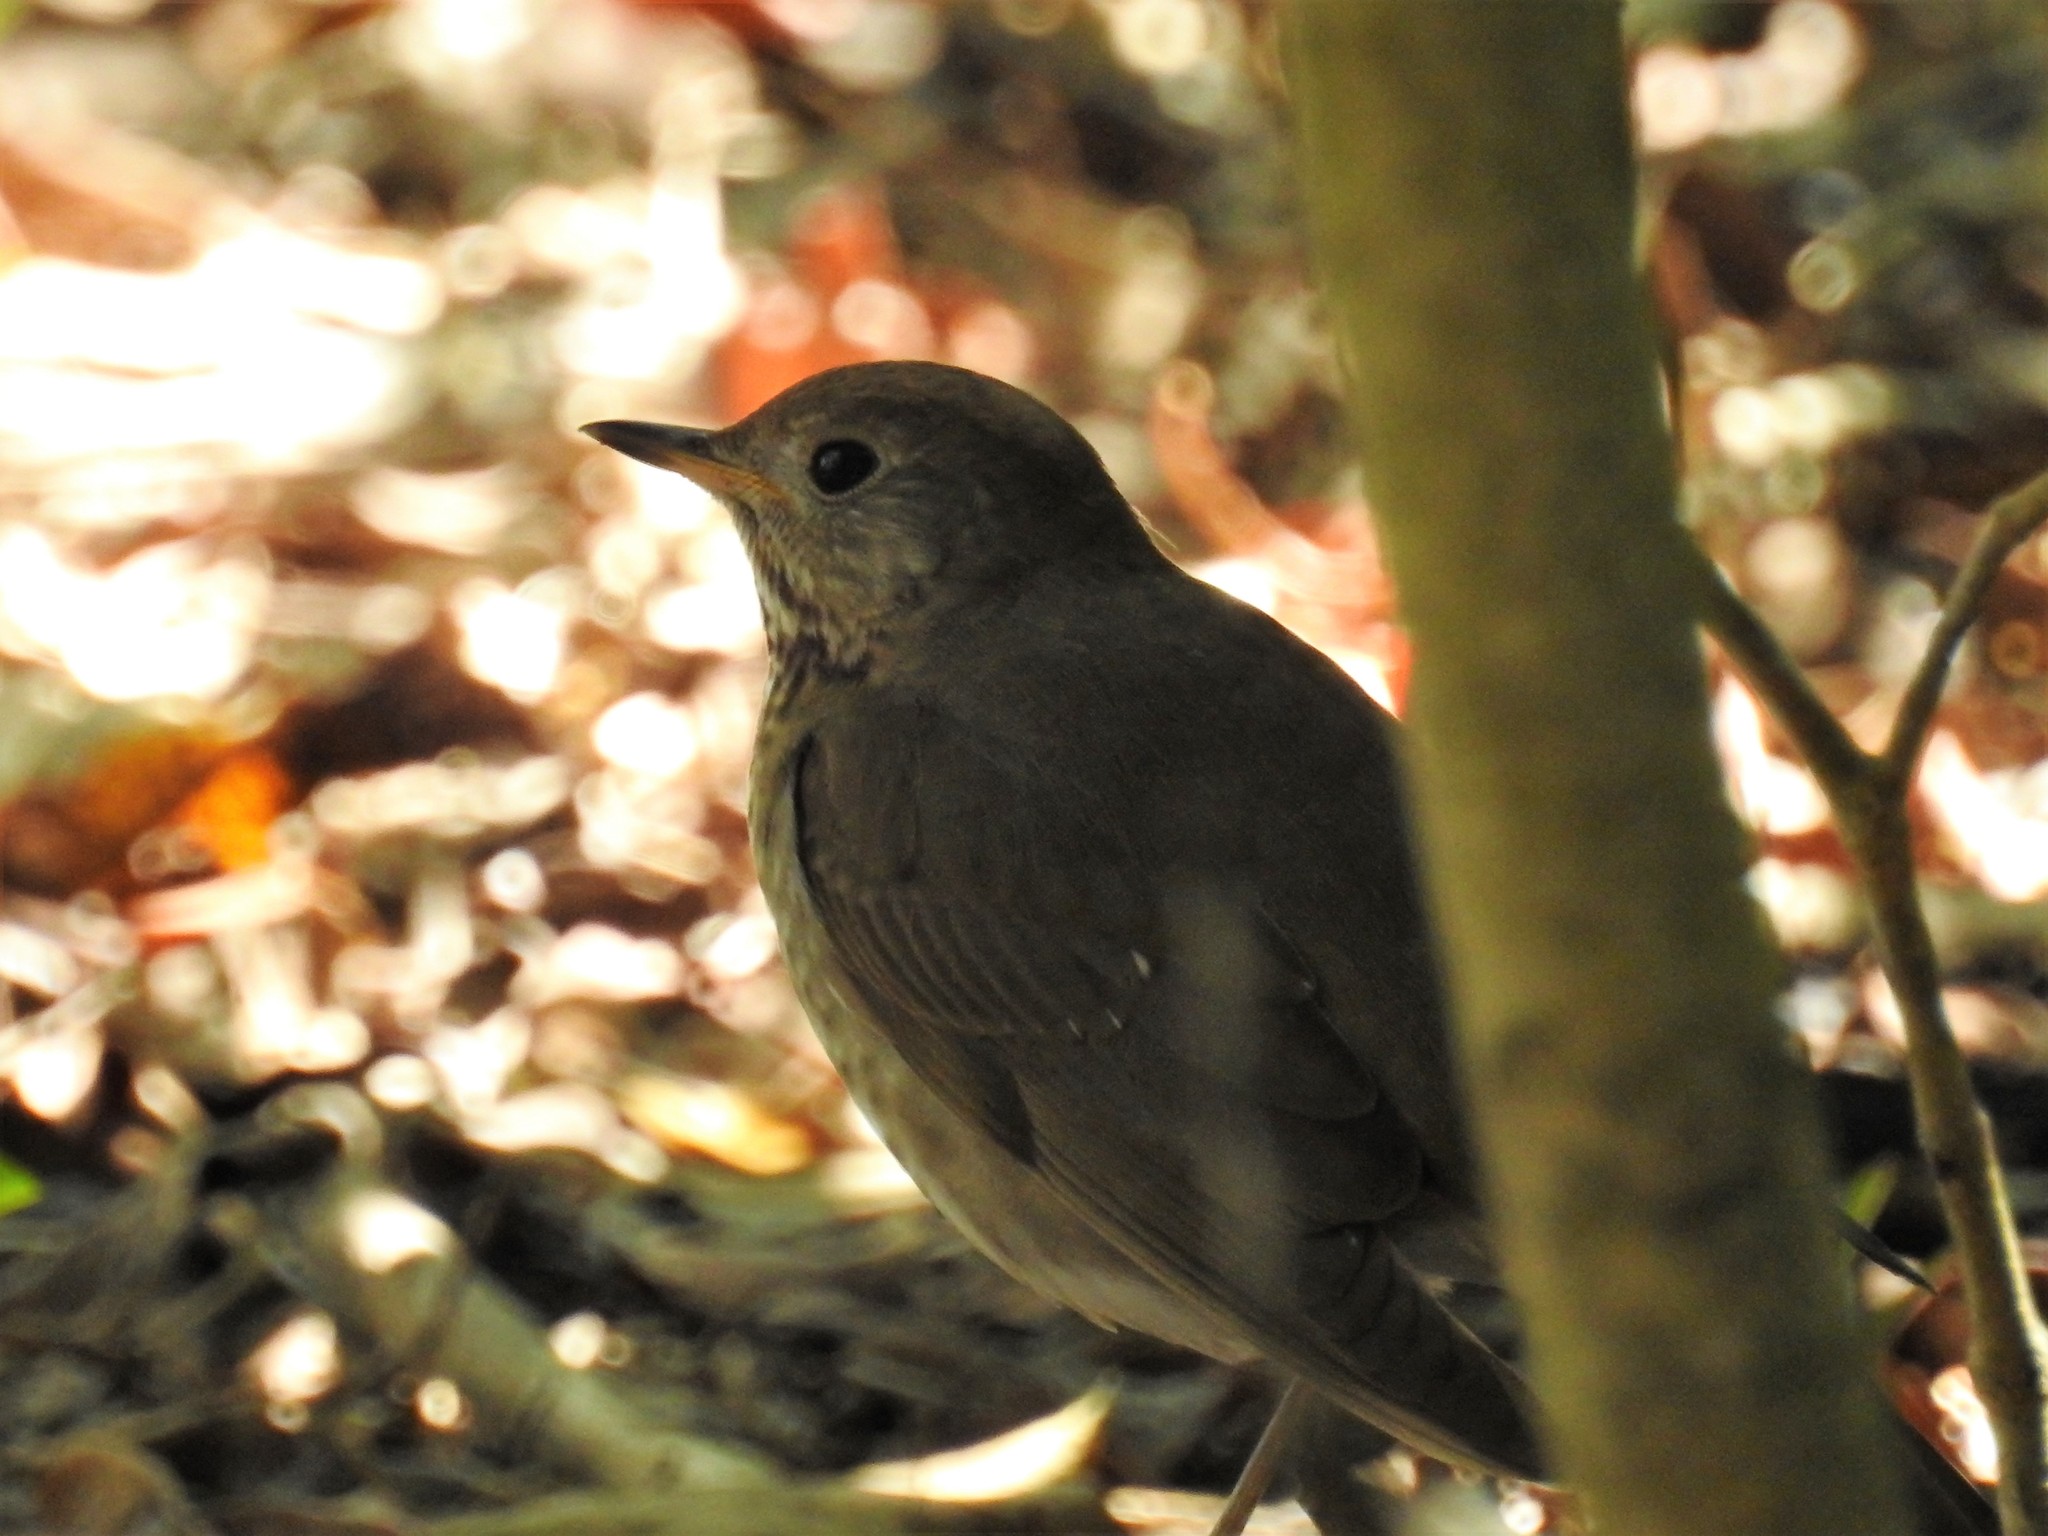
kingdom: Animalia
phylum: Chordata
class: Aves
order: Passeriformes
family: Turdidae
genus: Catharus
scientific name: Catharus minimus
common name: Grey-cheeked thrush
